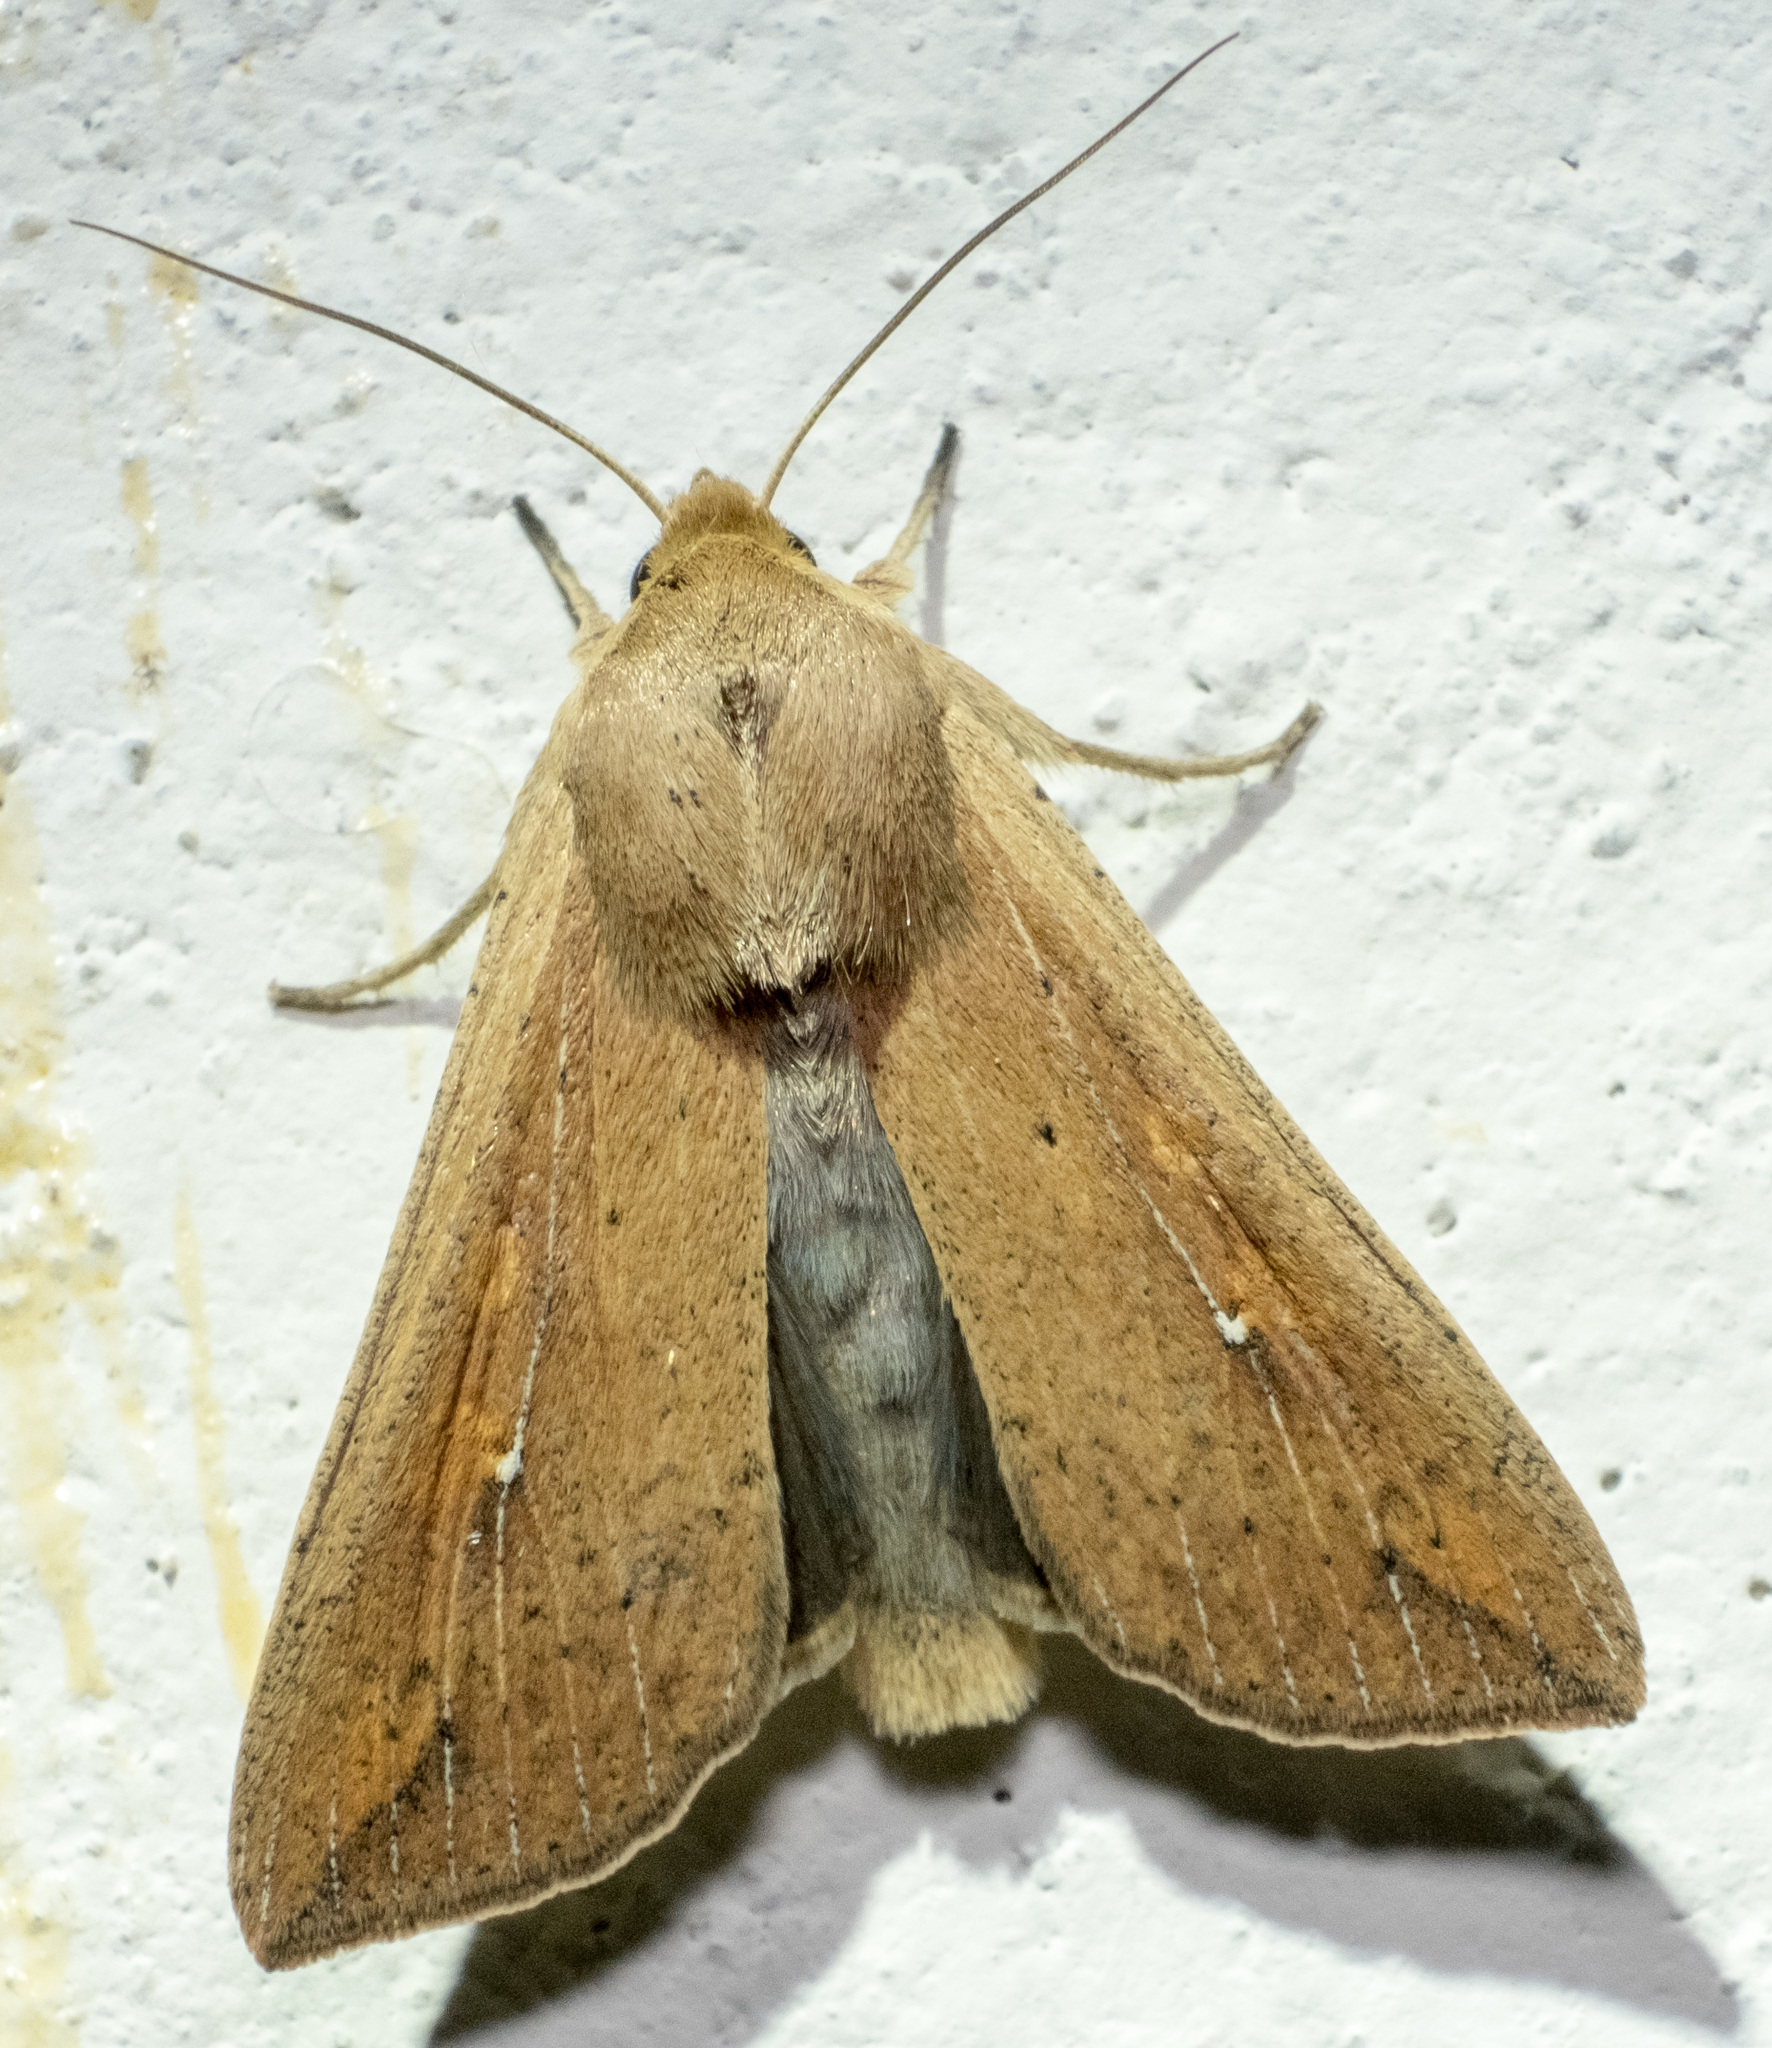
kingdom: Animalia
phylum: Arthropoda
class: Insecta
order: Lepidoptera
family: Noctuidae
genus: Mythimna
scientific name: Mythimna unipuncta
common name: White-speck
